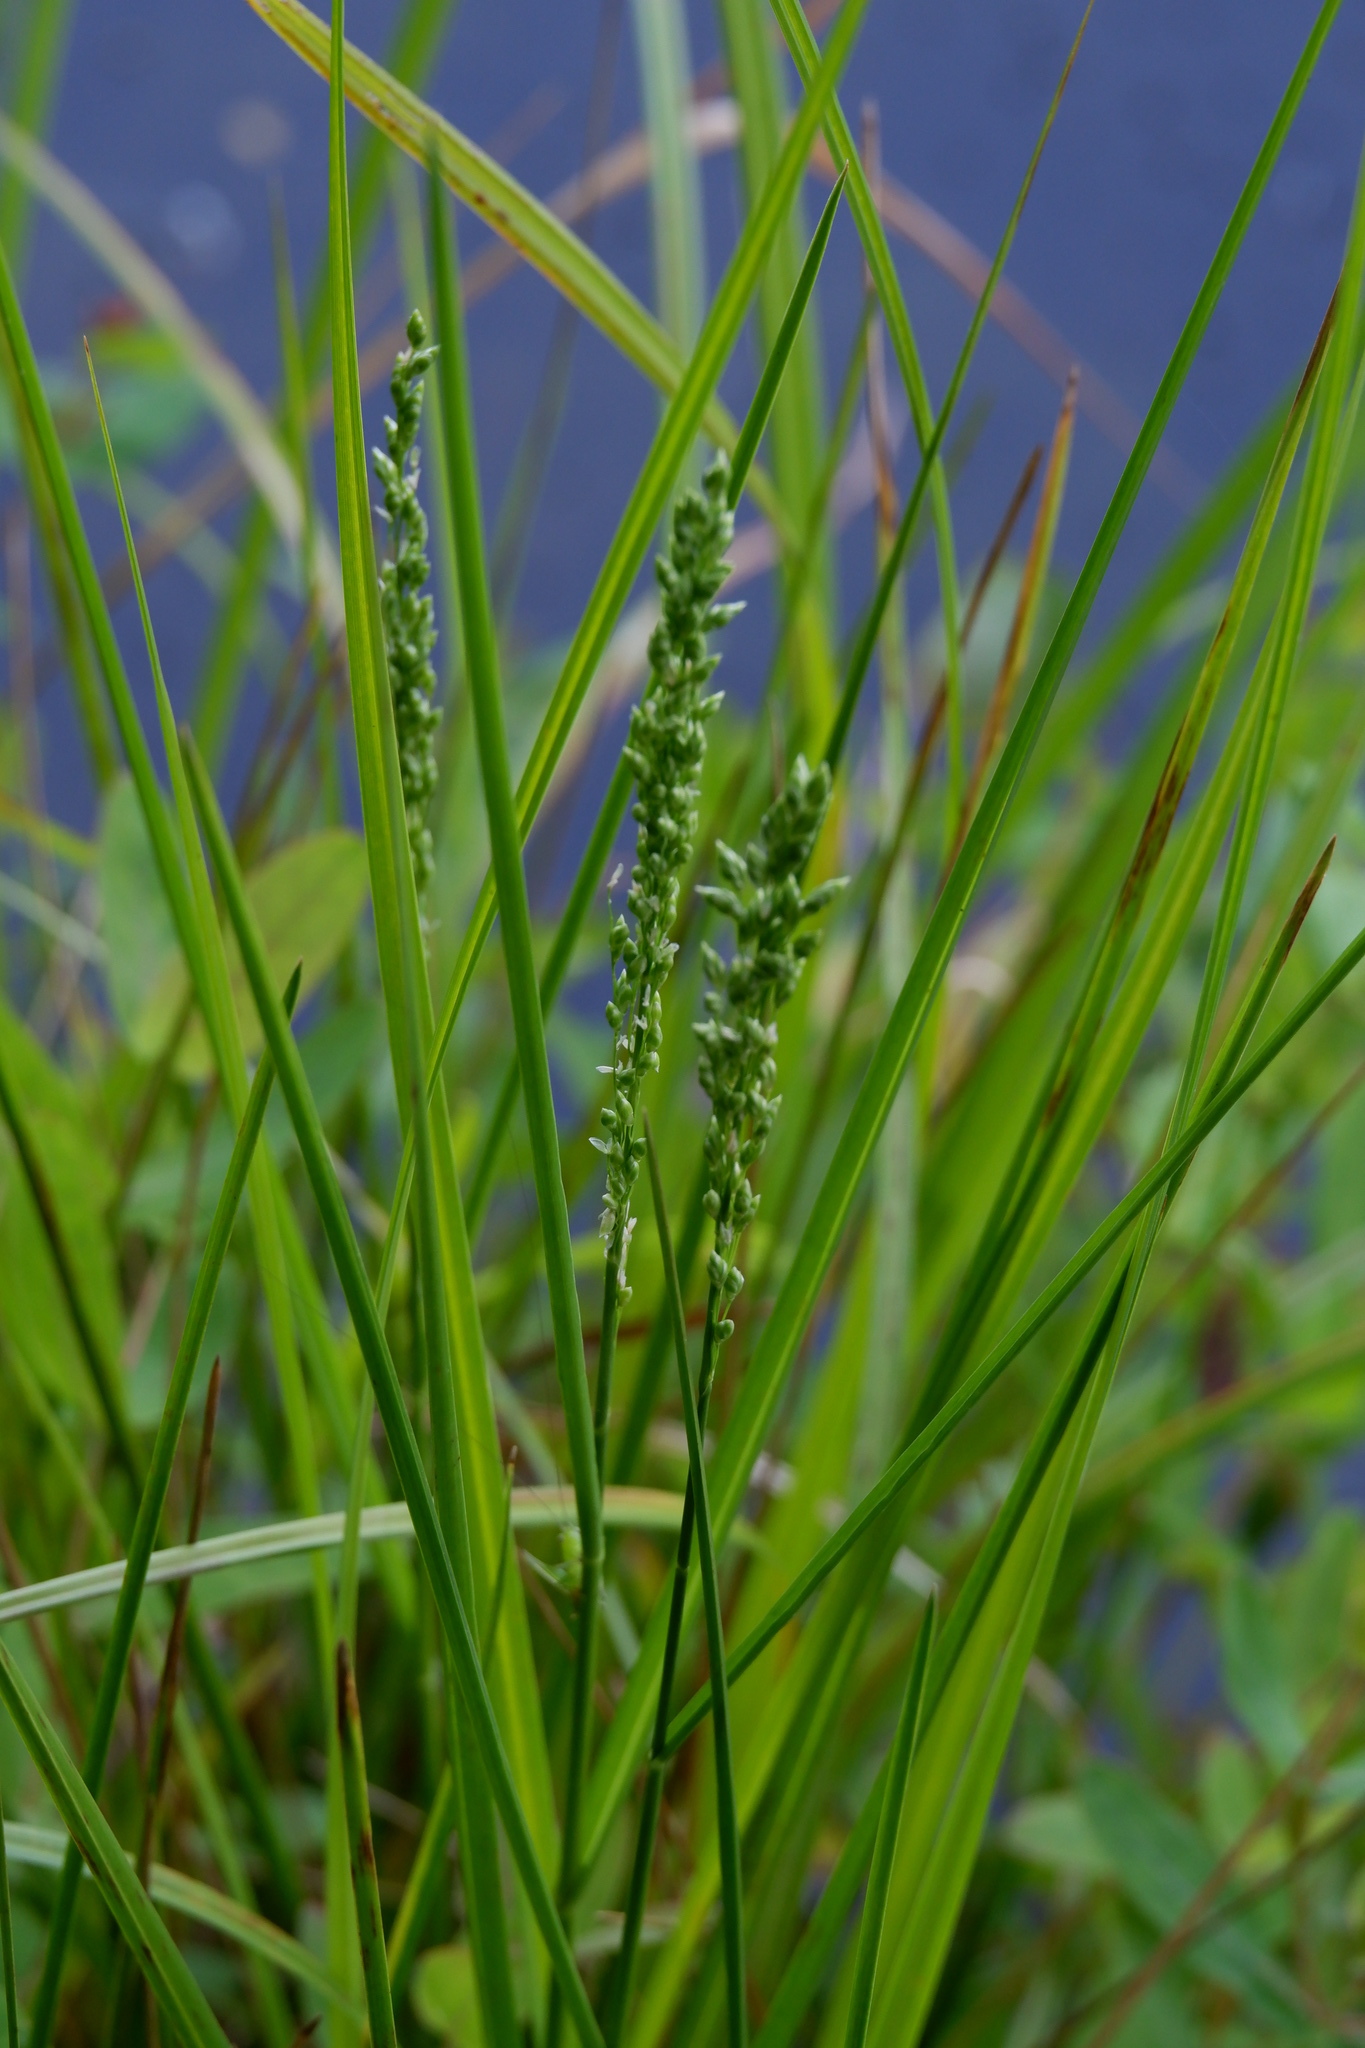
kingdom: Plantae
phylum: Tracheophyta
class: Liliopsida
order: Poales
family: Poaceae
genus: Glyceria
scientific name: Glyceria obtusa
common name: Atlantic mannagrass
